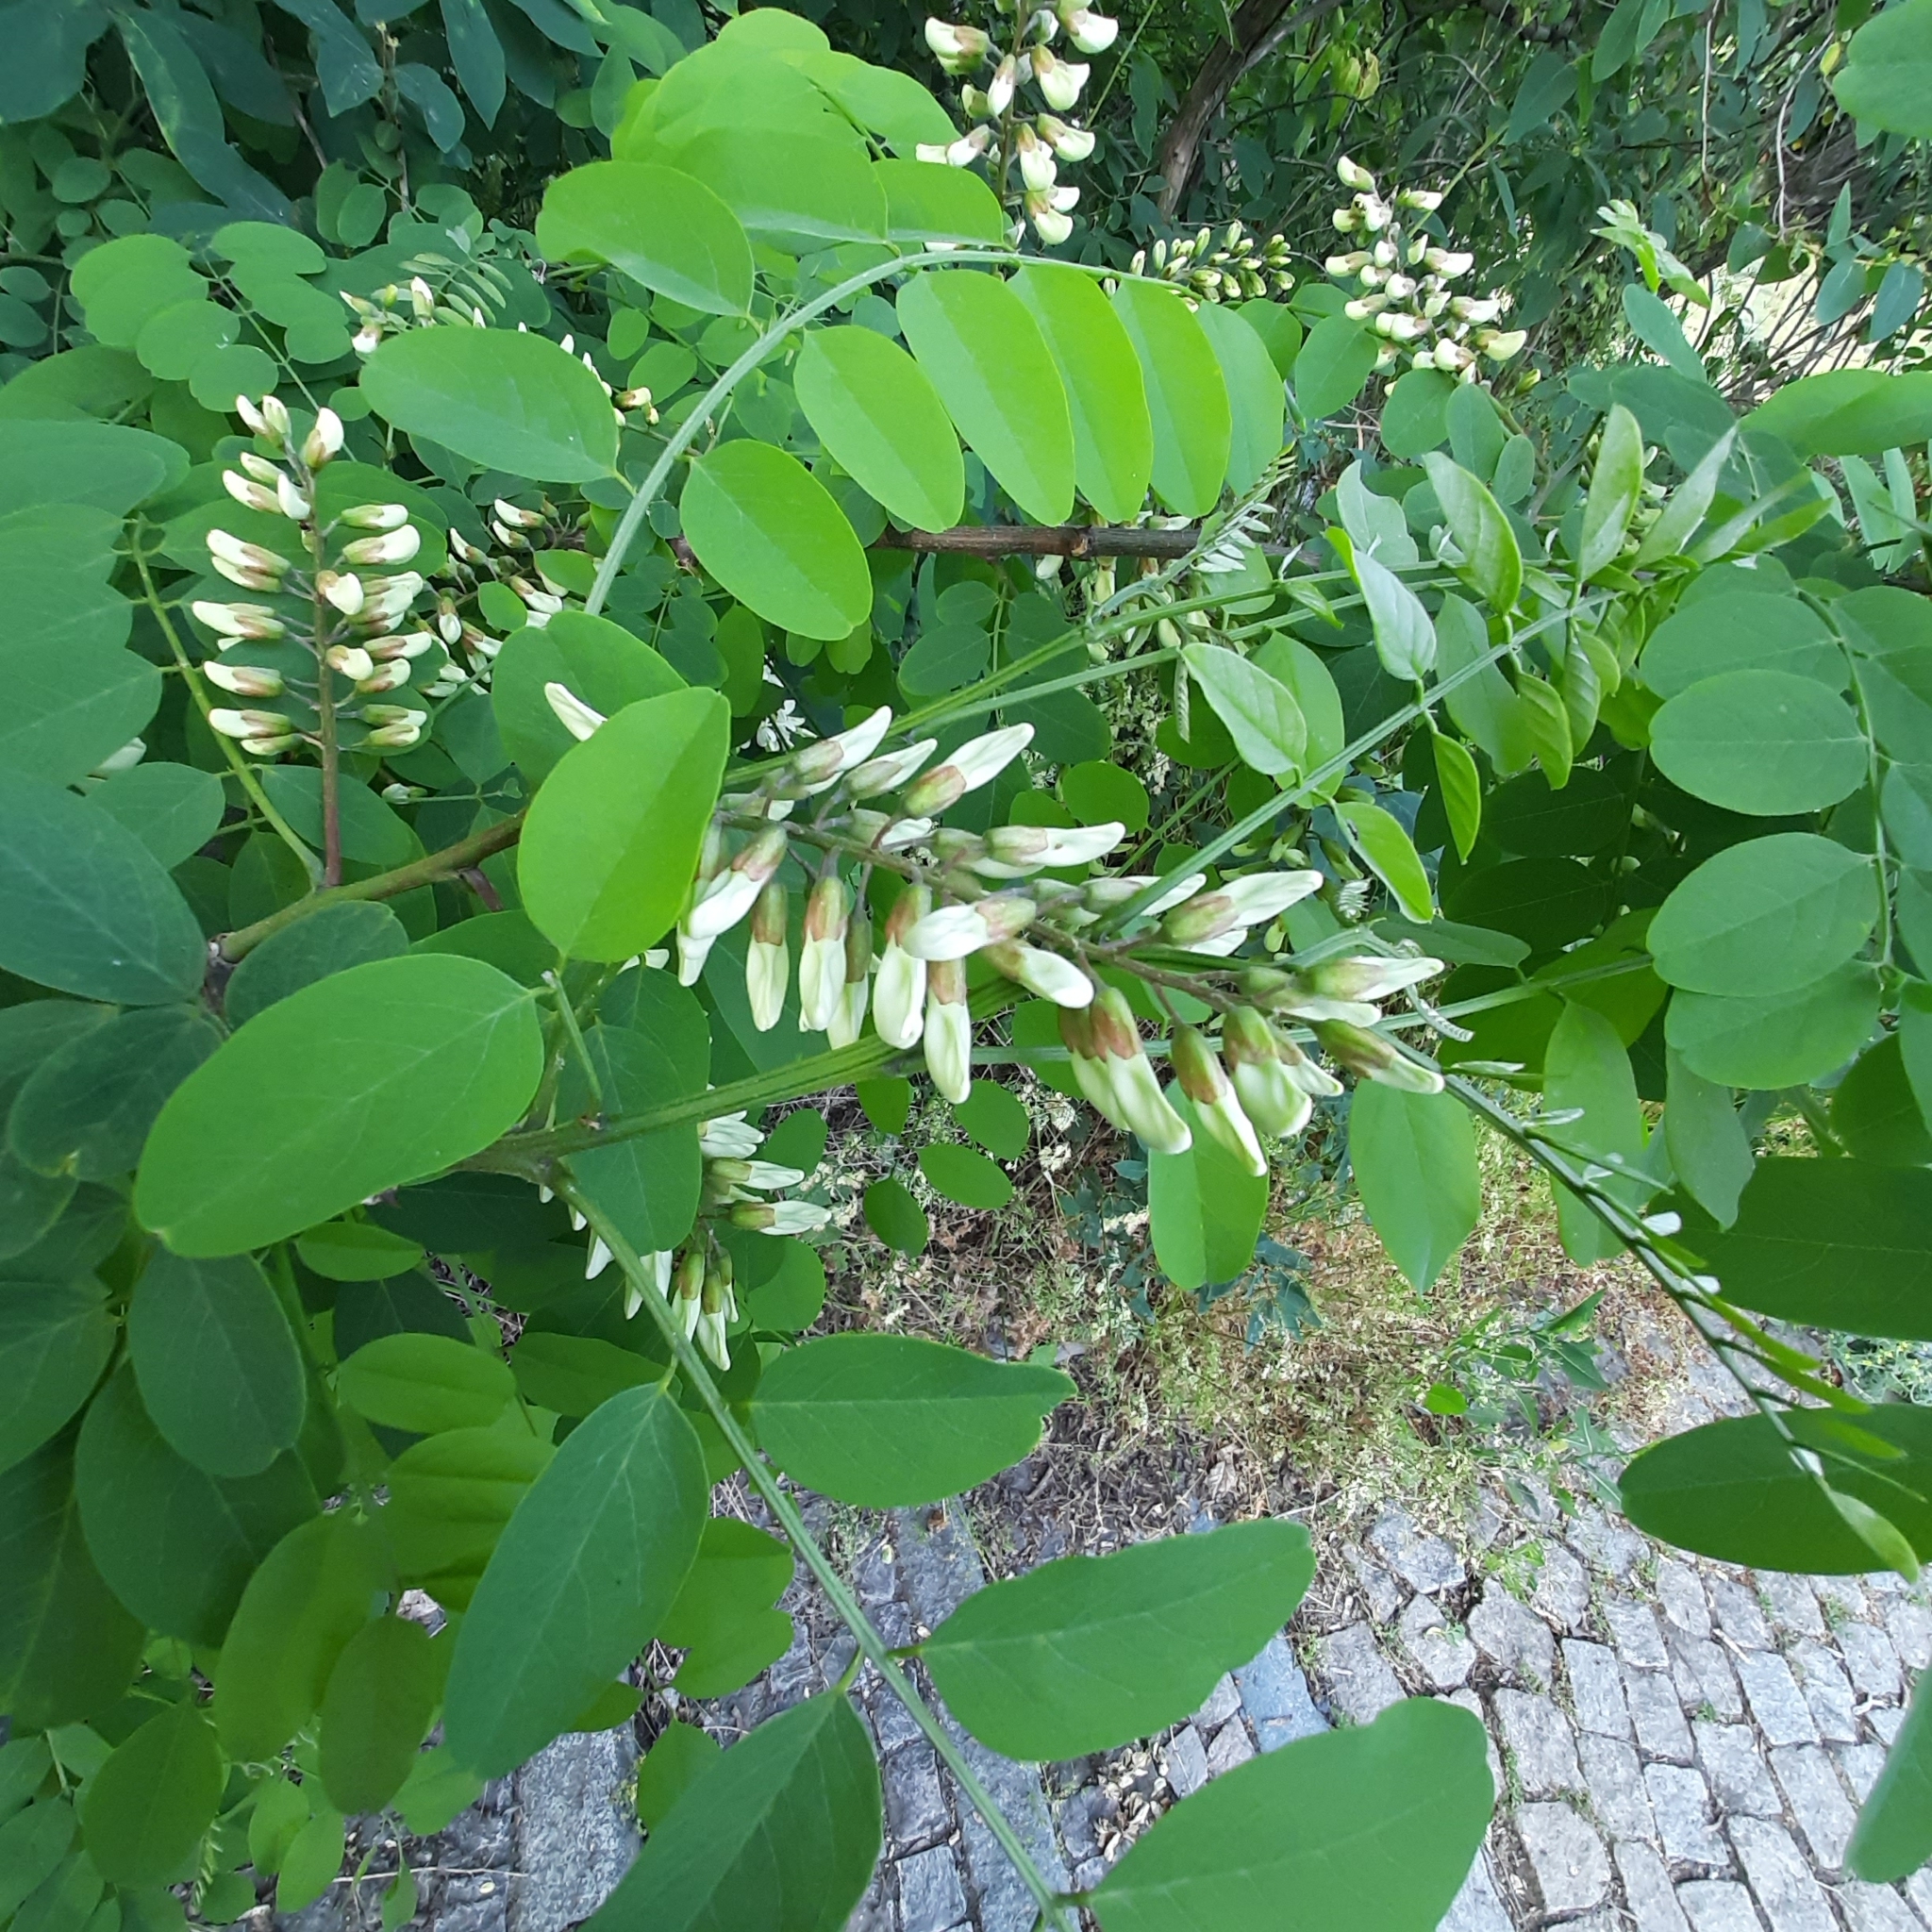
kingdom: Plantae
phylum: Tracheophyta
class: Magnoliopsida
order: Fabales
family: Fabaceae
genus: Robinia
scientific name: Robinia pseudoacacia
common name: Black locust
